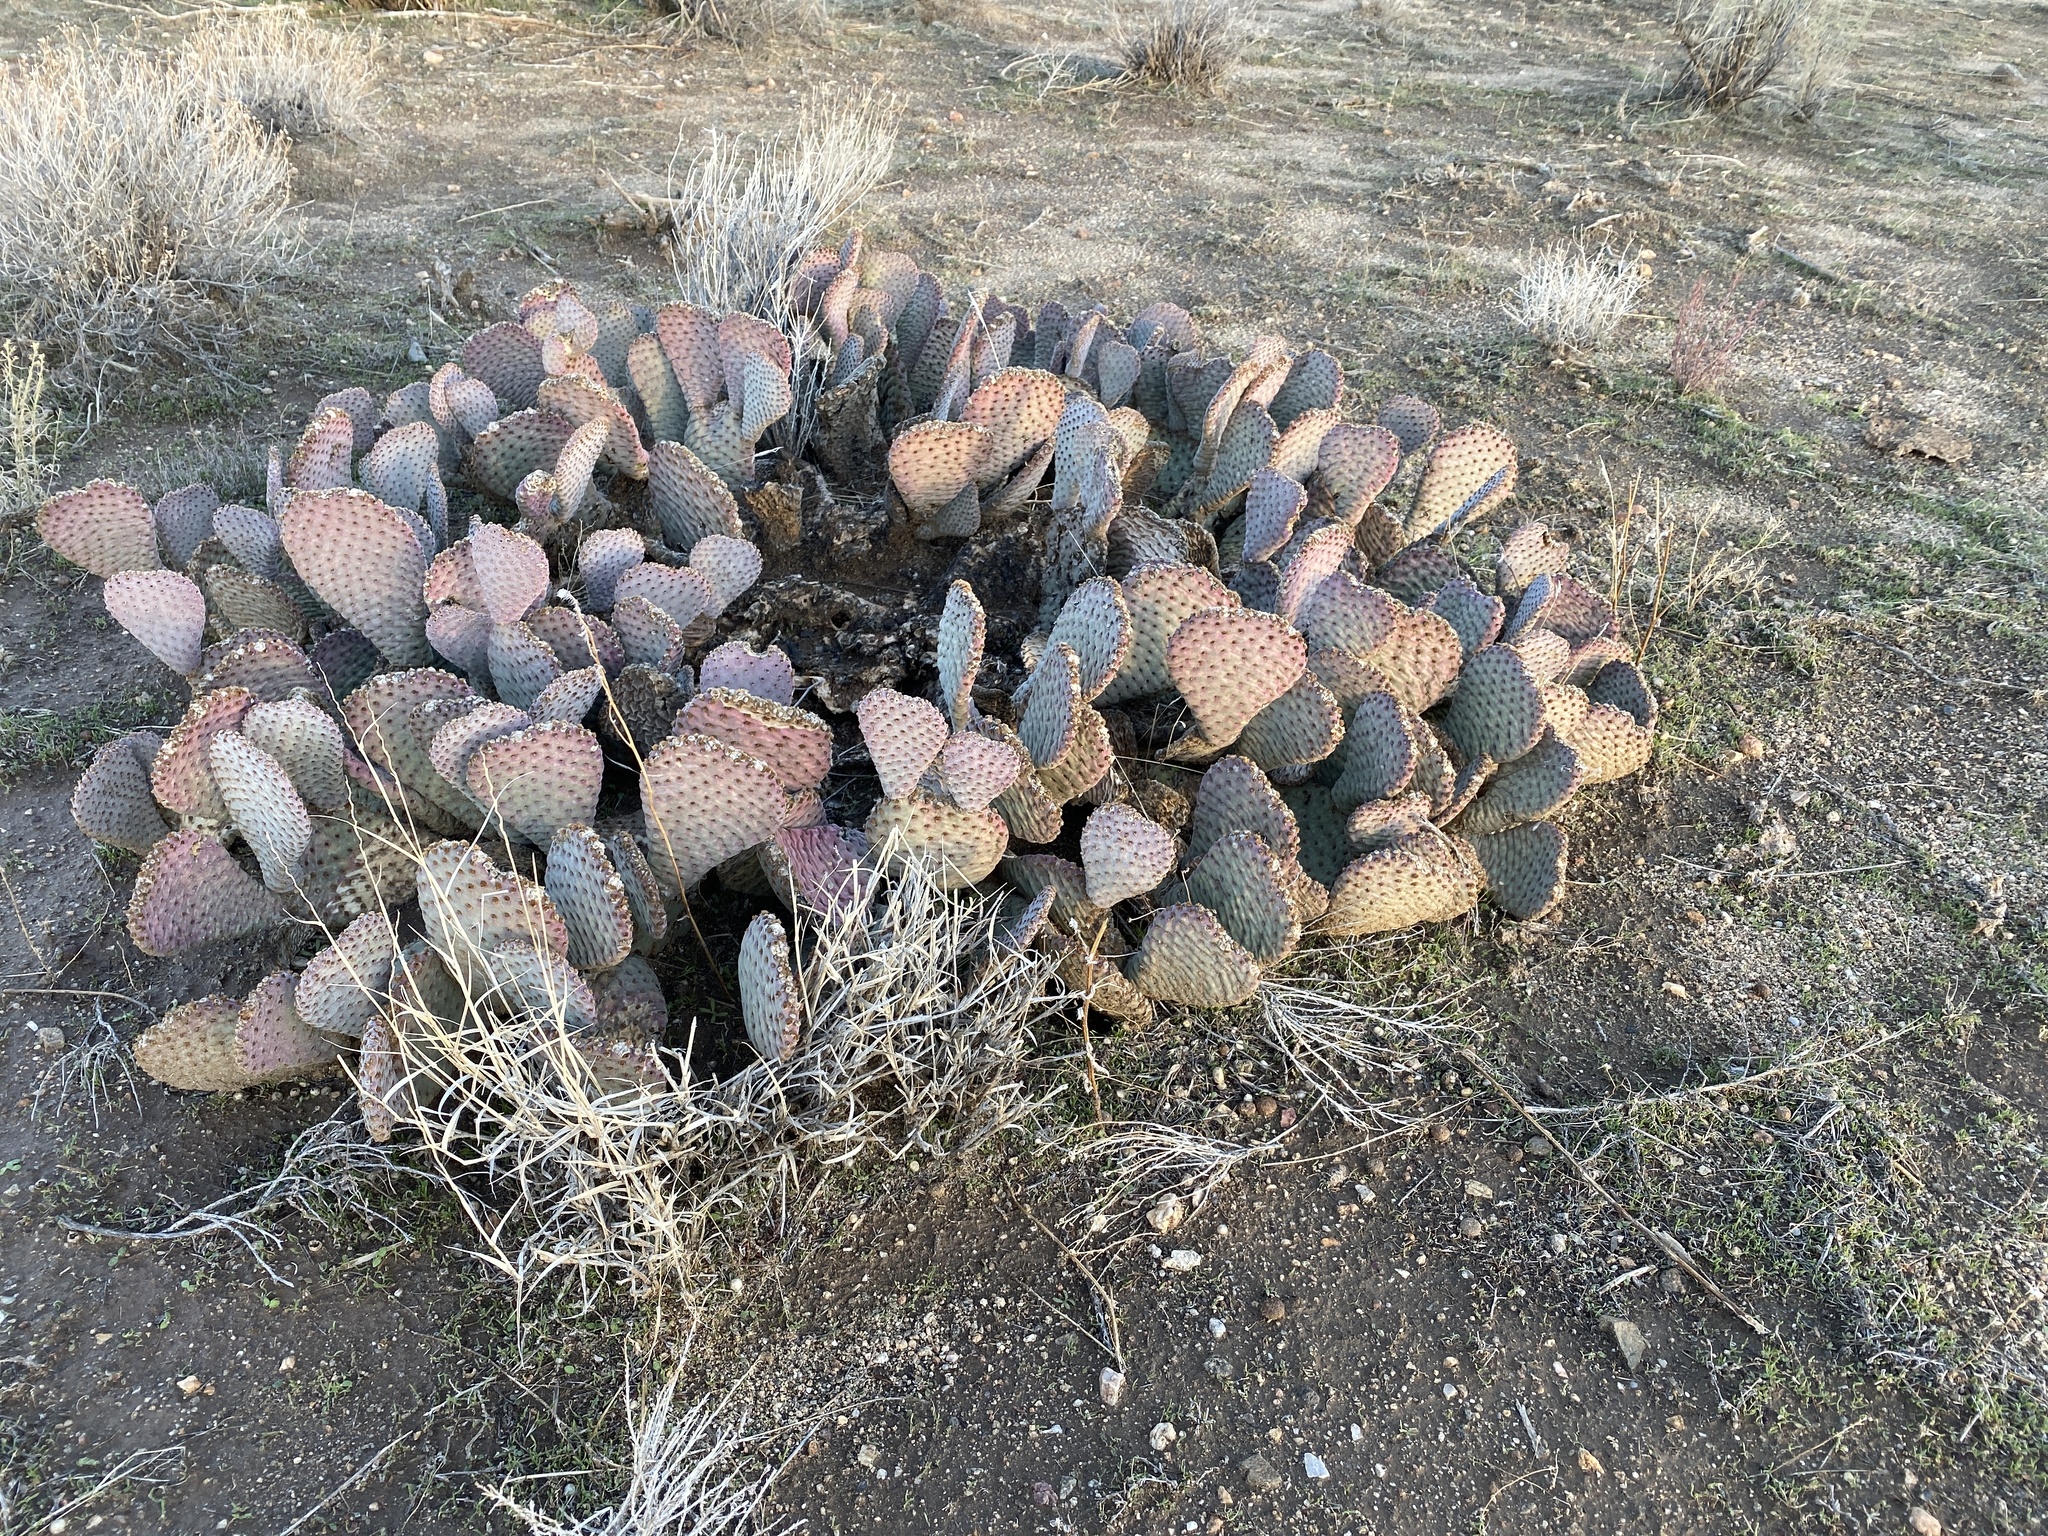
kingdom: Plantae
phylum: Tracheophyta
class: Magnoliopsida
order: Caryophyllales
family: Cactaceae
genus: Opuntia
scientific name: Opuntia basilaris
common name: Beavertail prickly-pear
